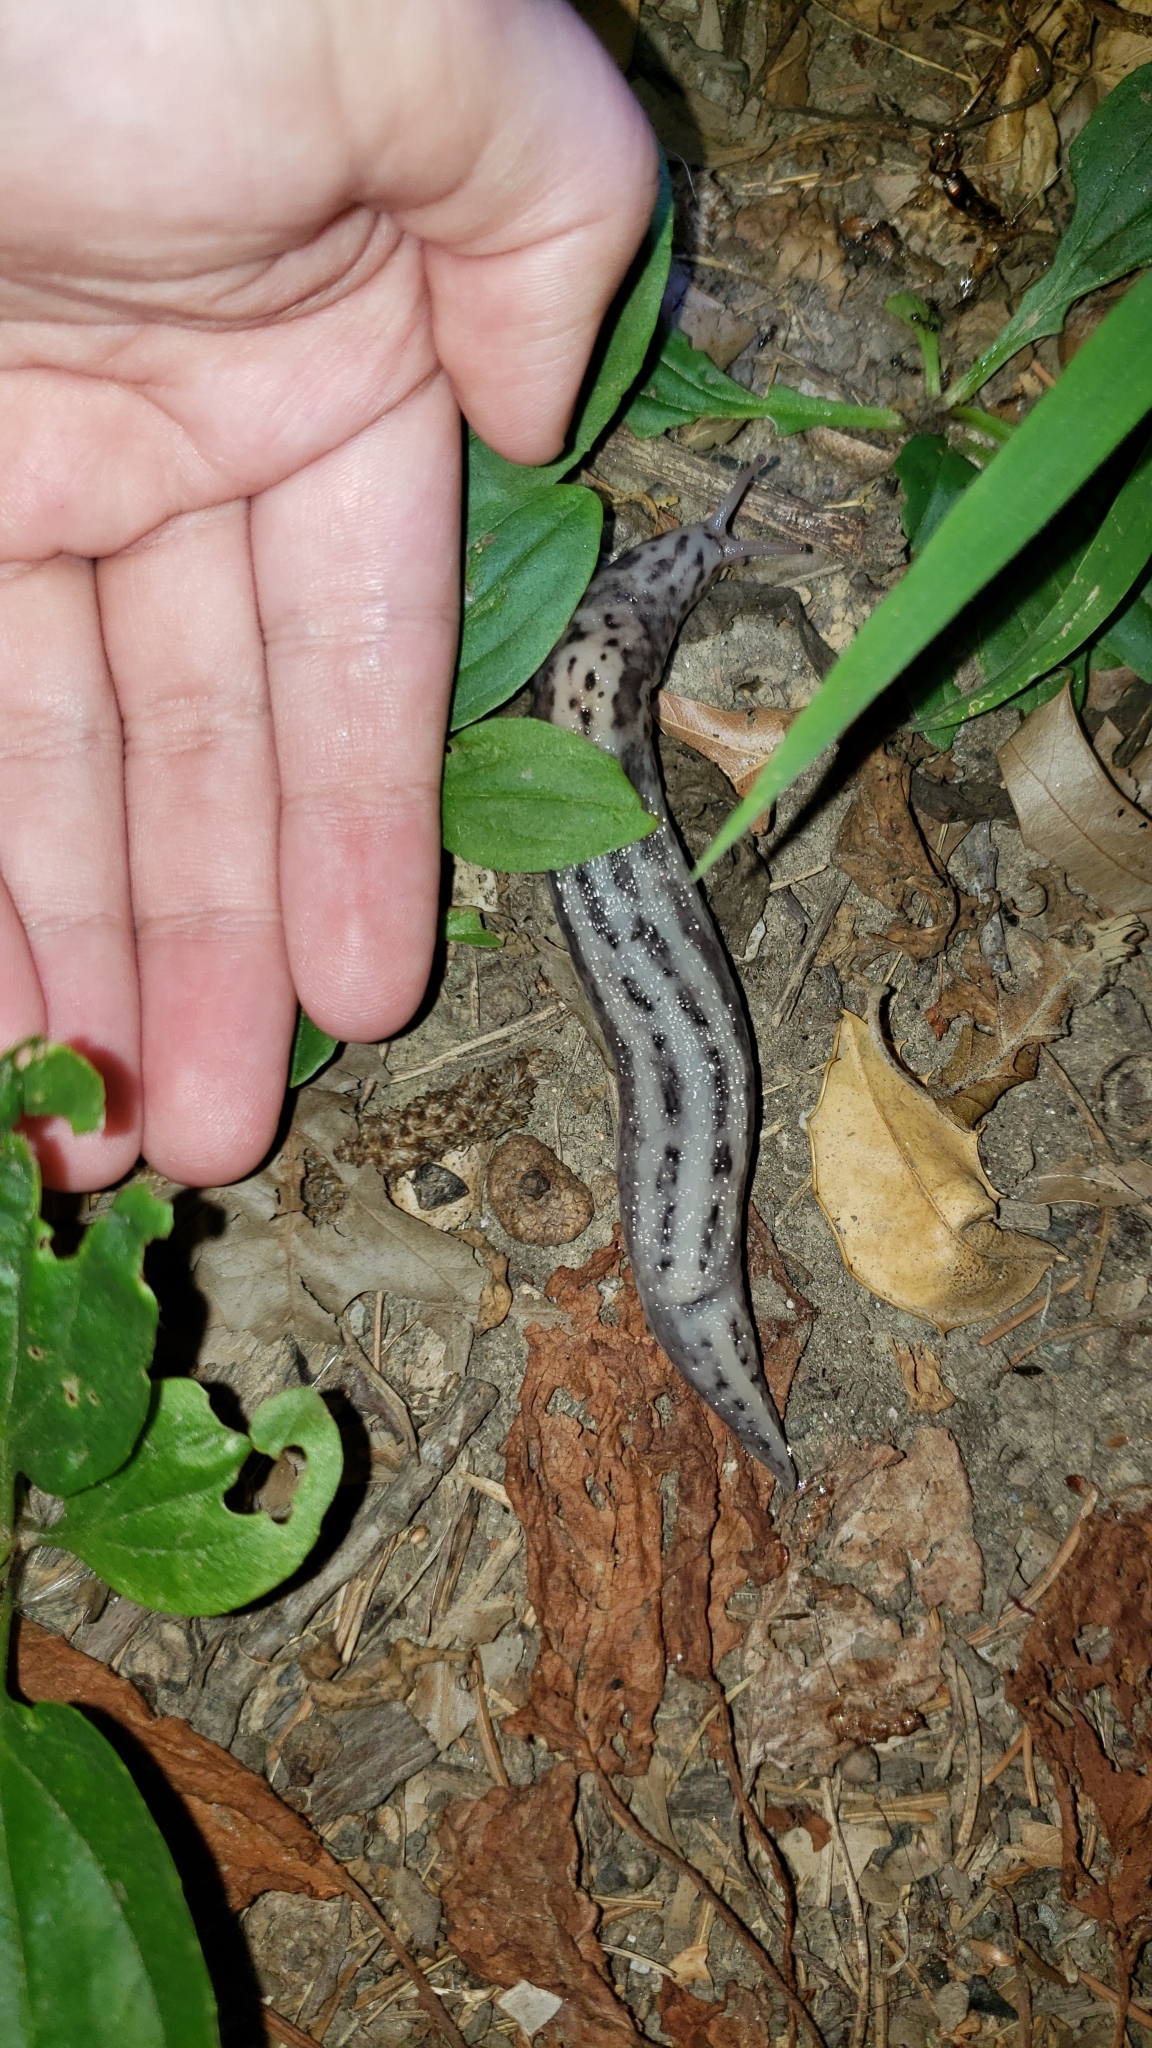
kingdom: Animalia
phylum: Mollusca
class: Gastropoda
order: Stylommatophora
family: Limacidae
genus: Limax
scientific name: Limax maximus
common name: Great grey slug
